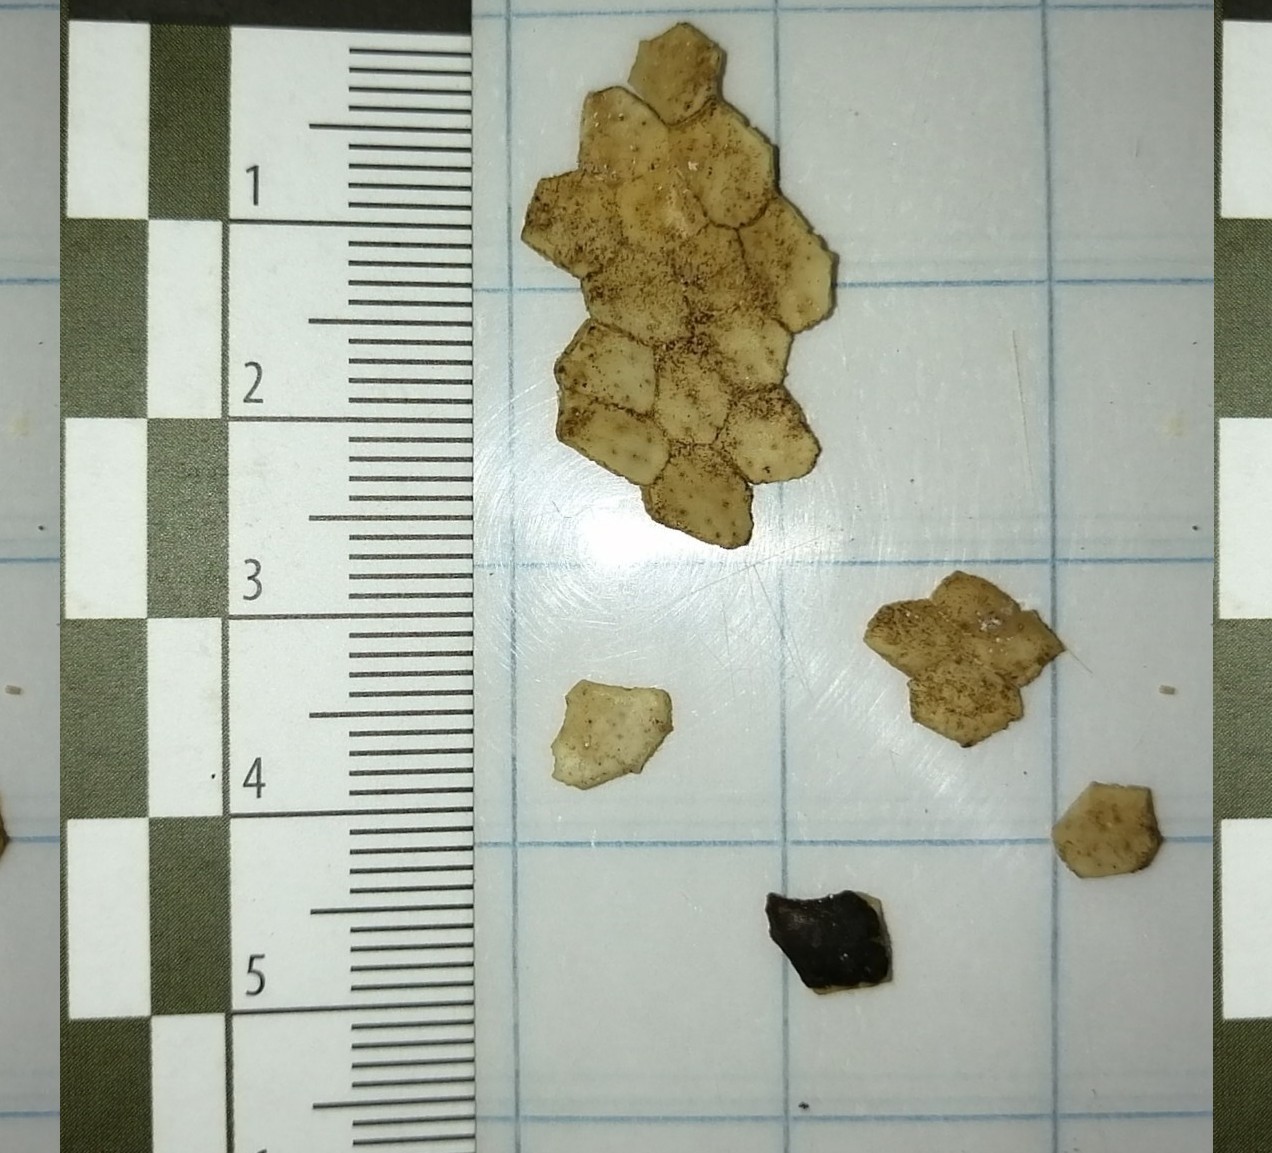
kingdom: Animalia
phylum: Chordata
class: Mammalia
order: Cingulata
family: Dasypodidae
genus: Dasypus
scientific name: Dasypus novemcinctus
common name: Nine-banded armadillo
